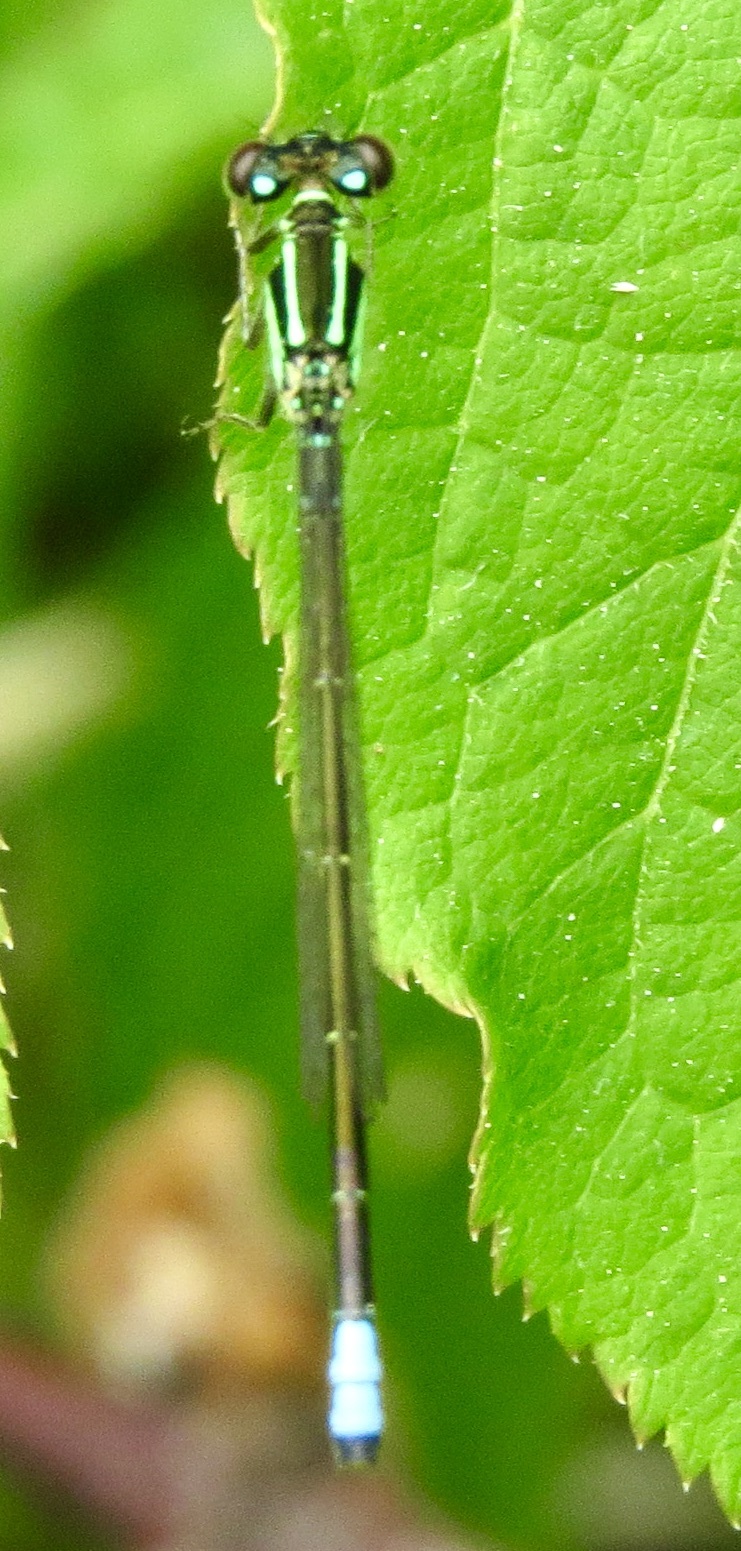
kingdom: Animalia
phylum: Arthropoda
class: Insecta
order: Odonata
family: Coenagrionidae
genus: Ischnura
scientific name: Ischnura verticalis
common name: Eastern forktail
